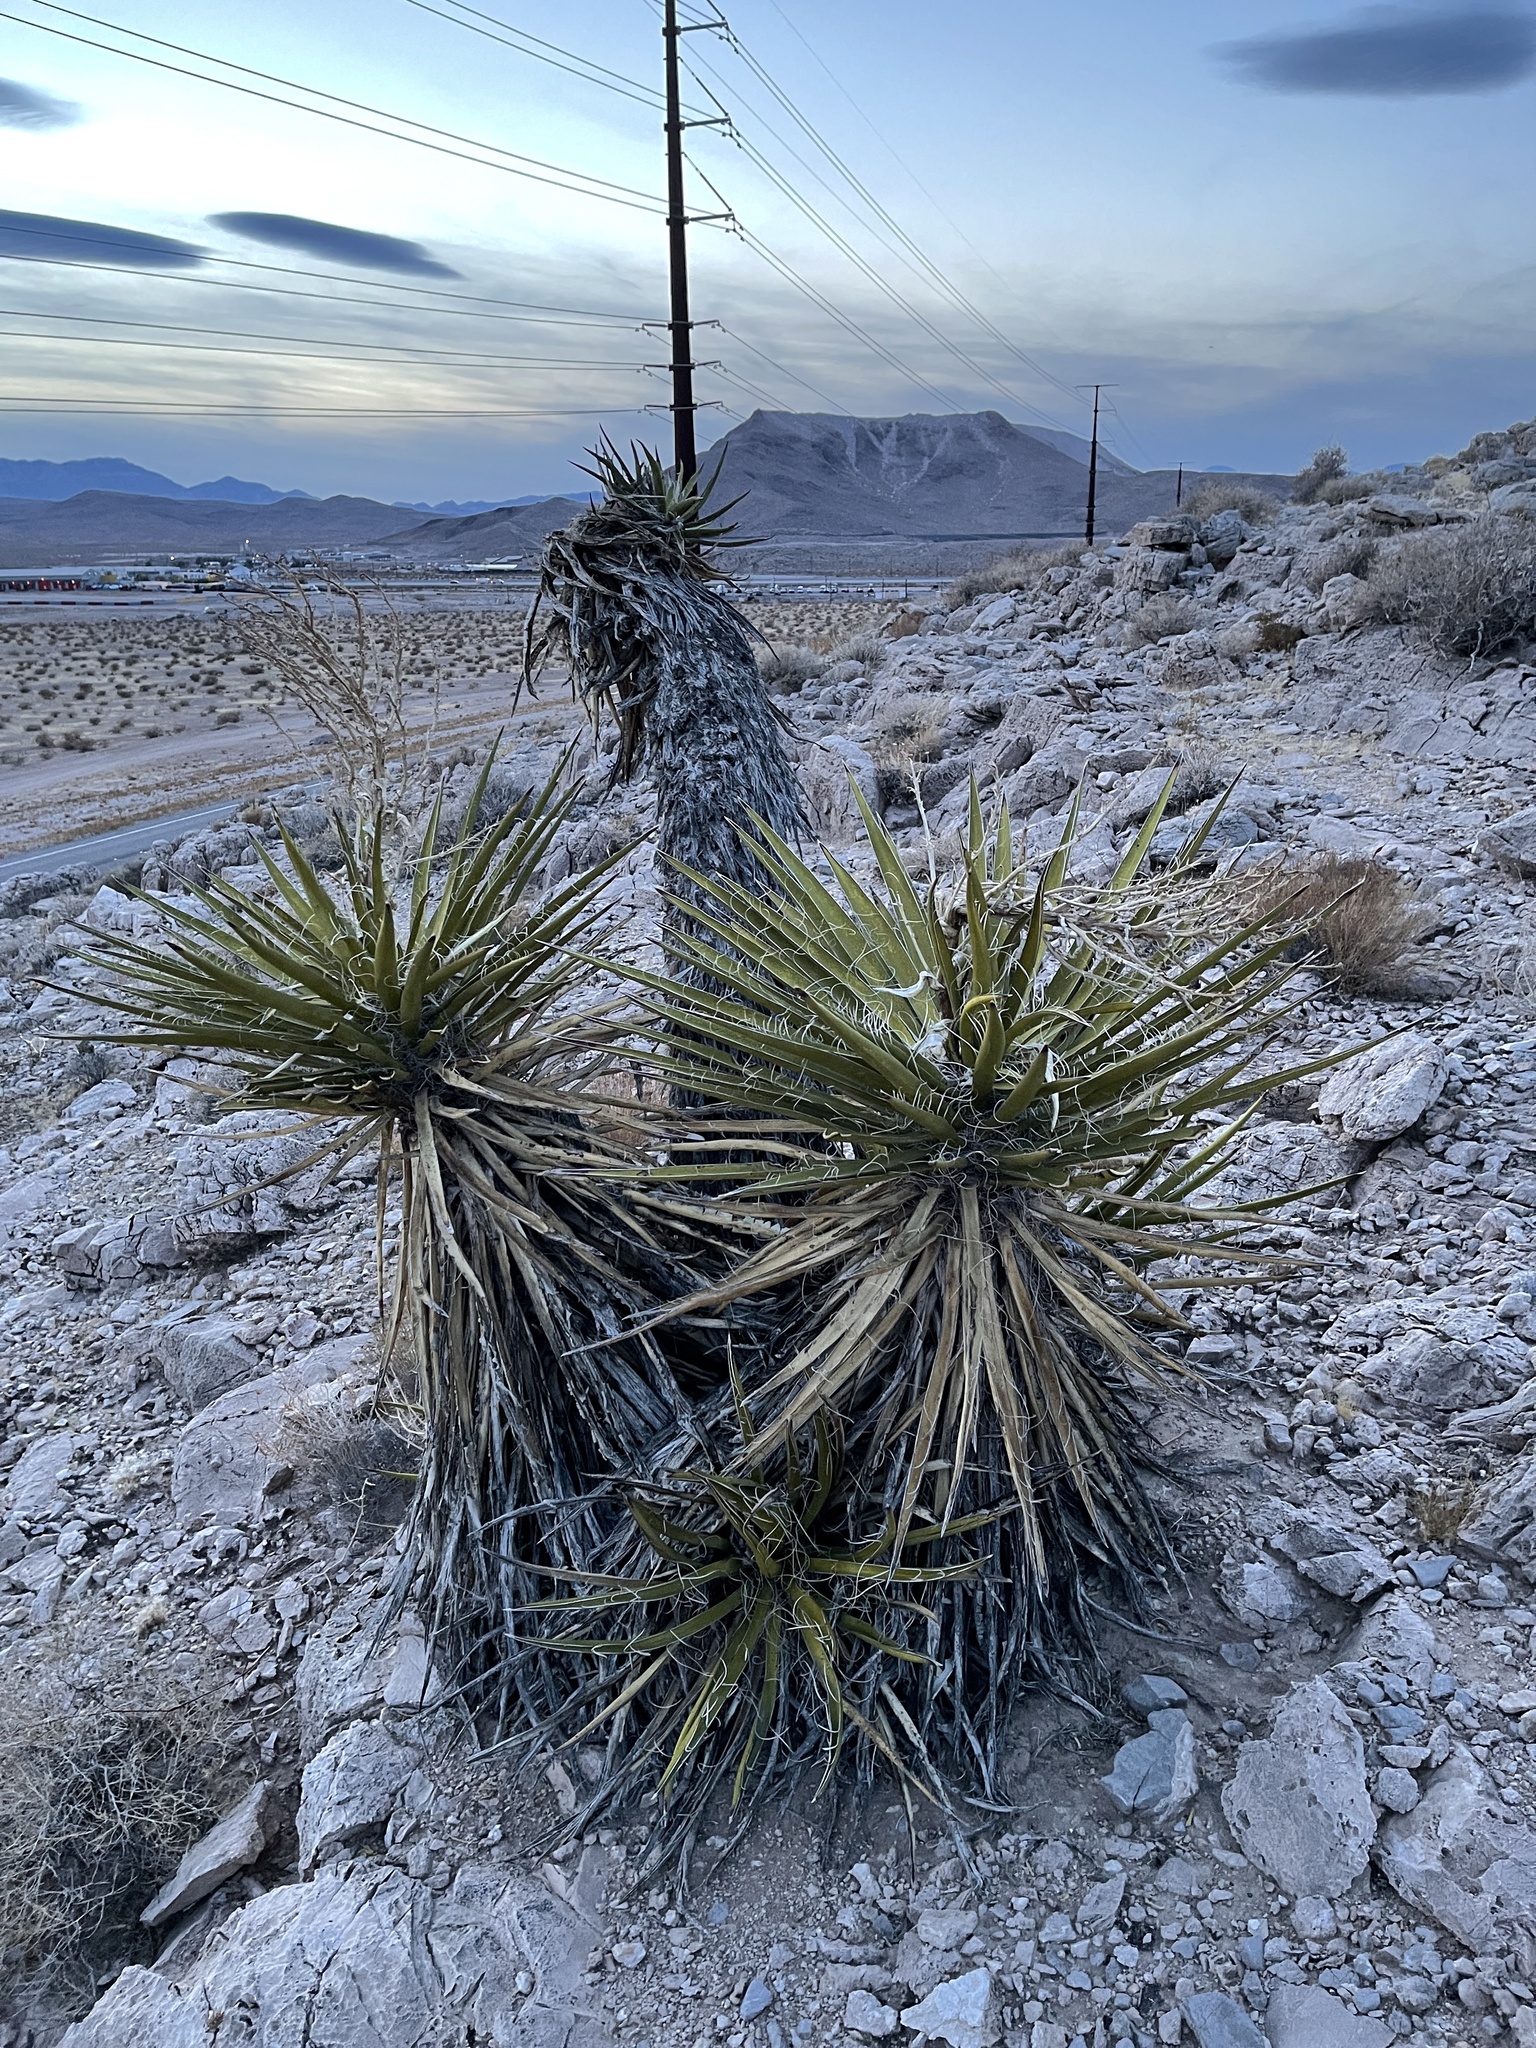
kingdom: Plantae
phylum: Tracheophyta
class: Liliopsida
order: Asparagales
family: Asparagaceae
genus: Yucca
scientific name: Yucca schidigera
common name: Mojave yucca
